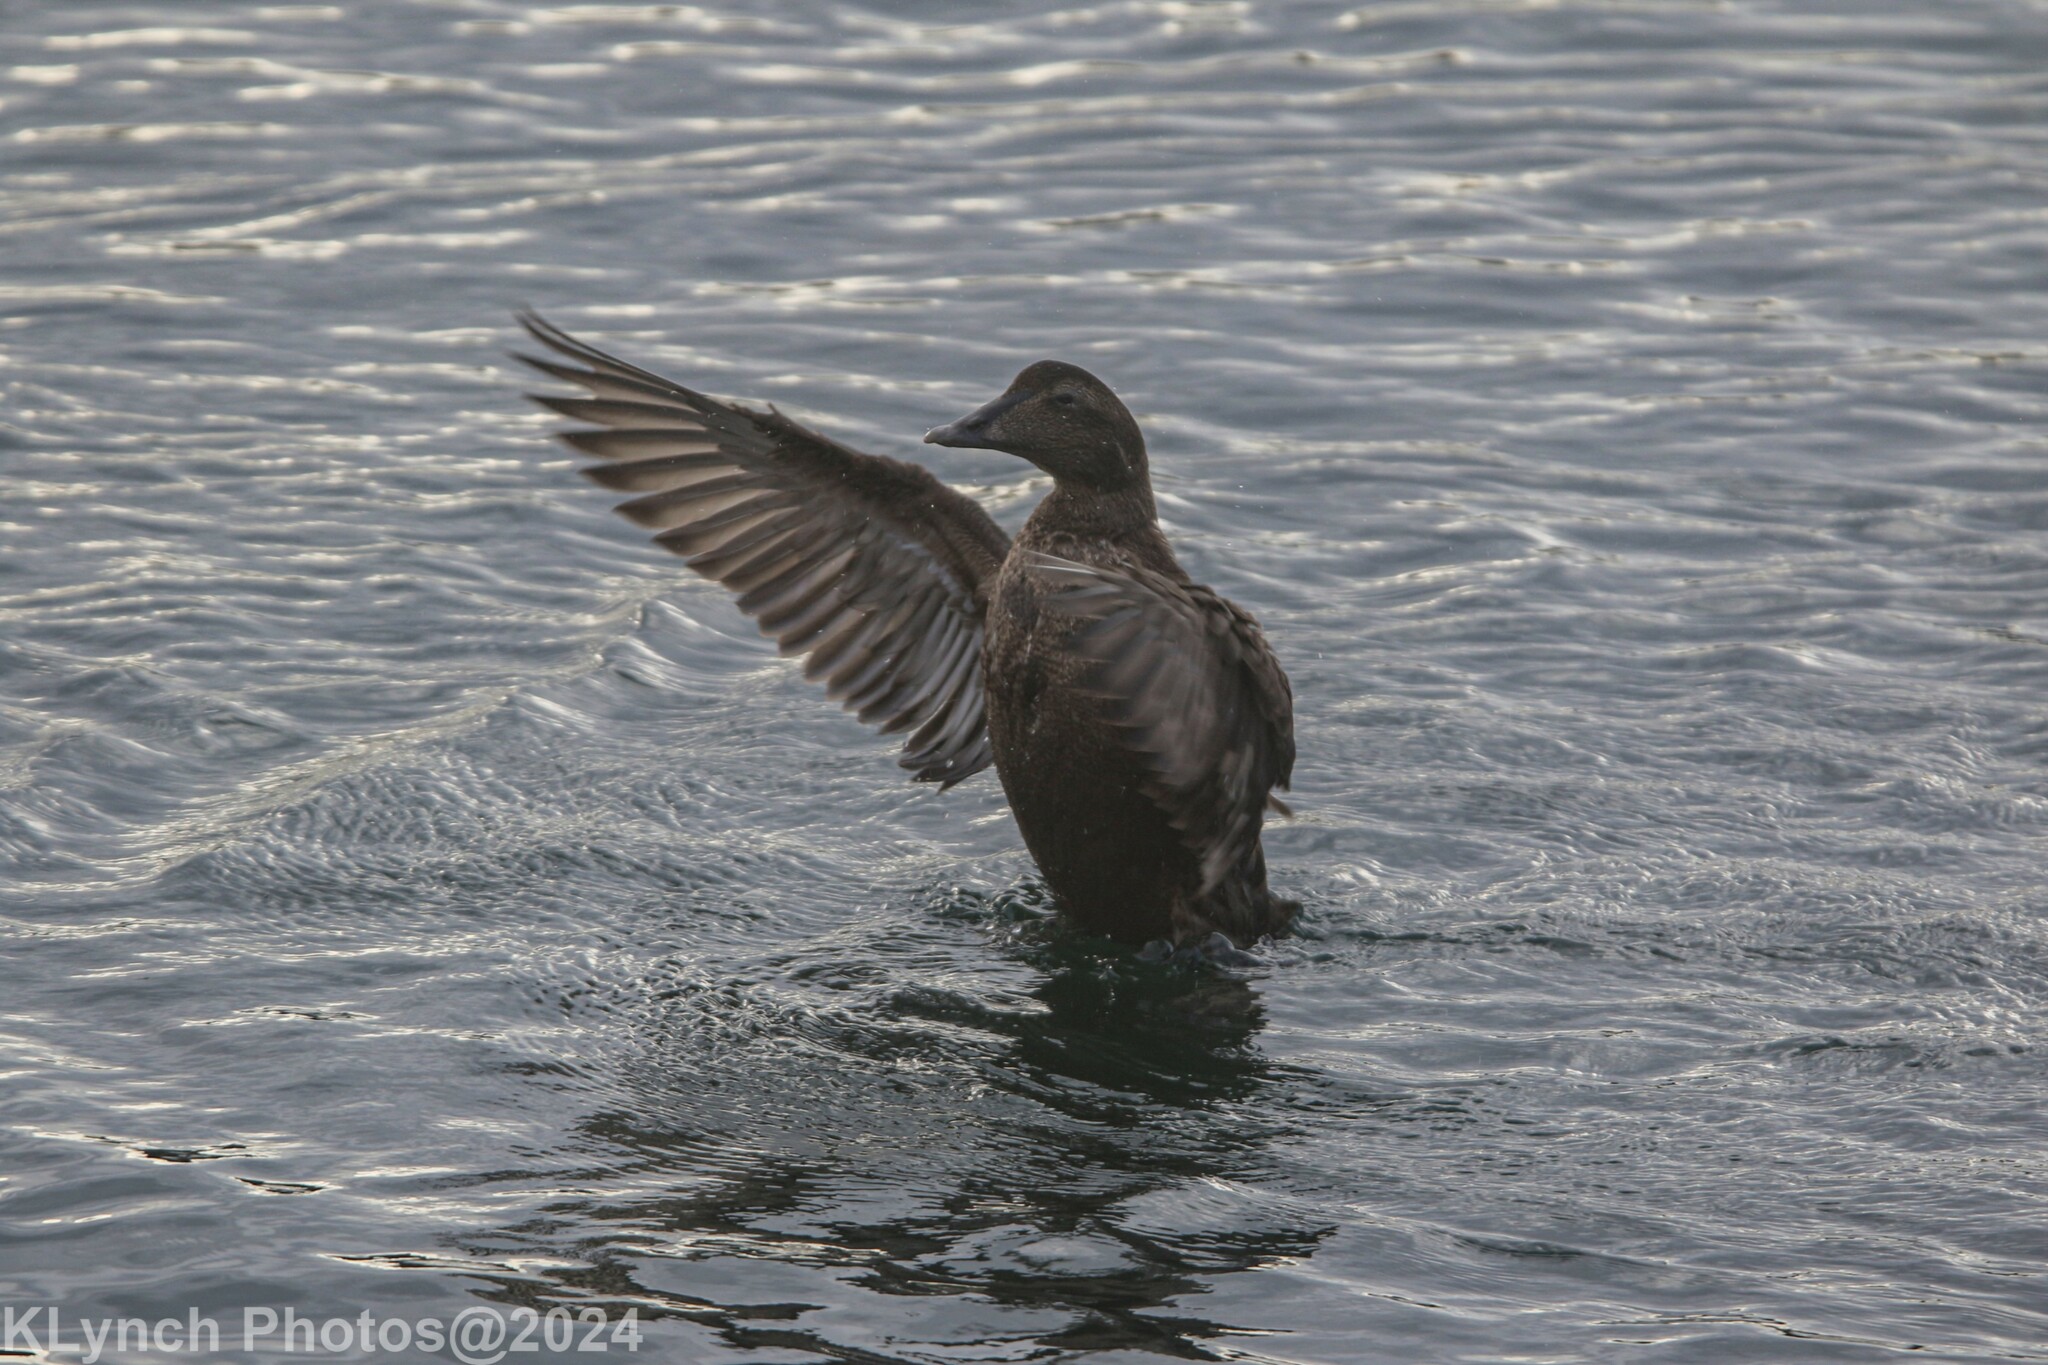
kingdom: Animalia
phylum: Chordata
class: Aves
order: Anseriformes
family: Anatidae
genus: Somateria
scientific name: Somateria mollissima
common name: Common eider
